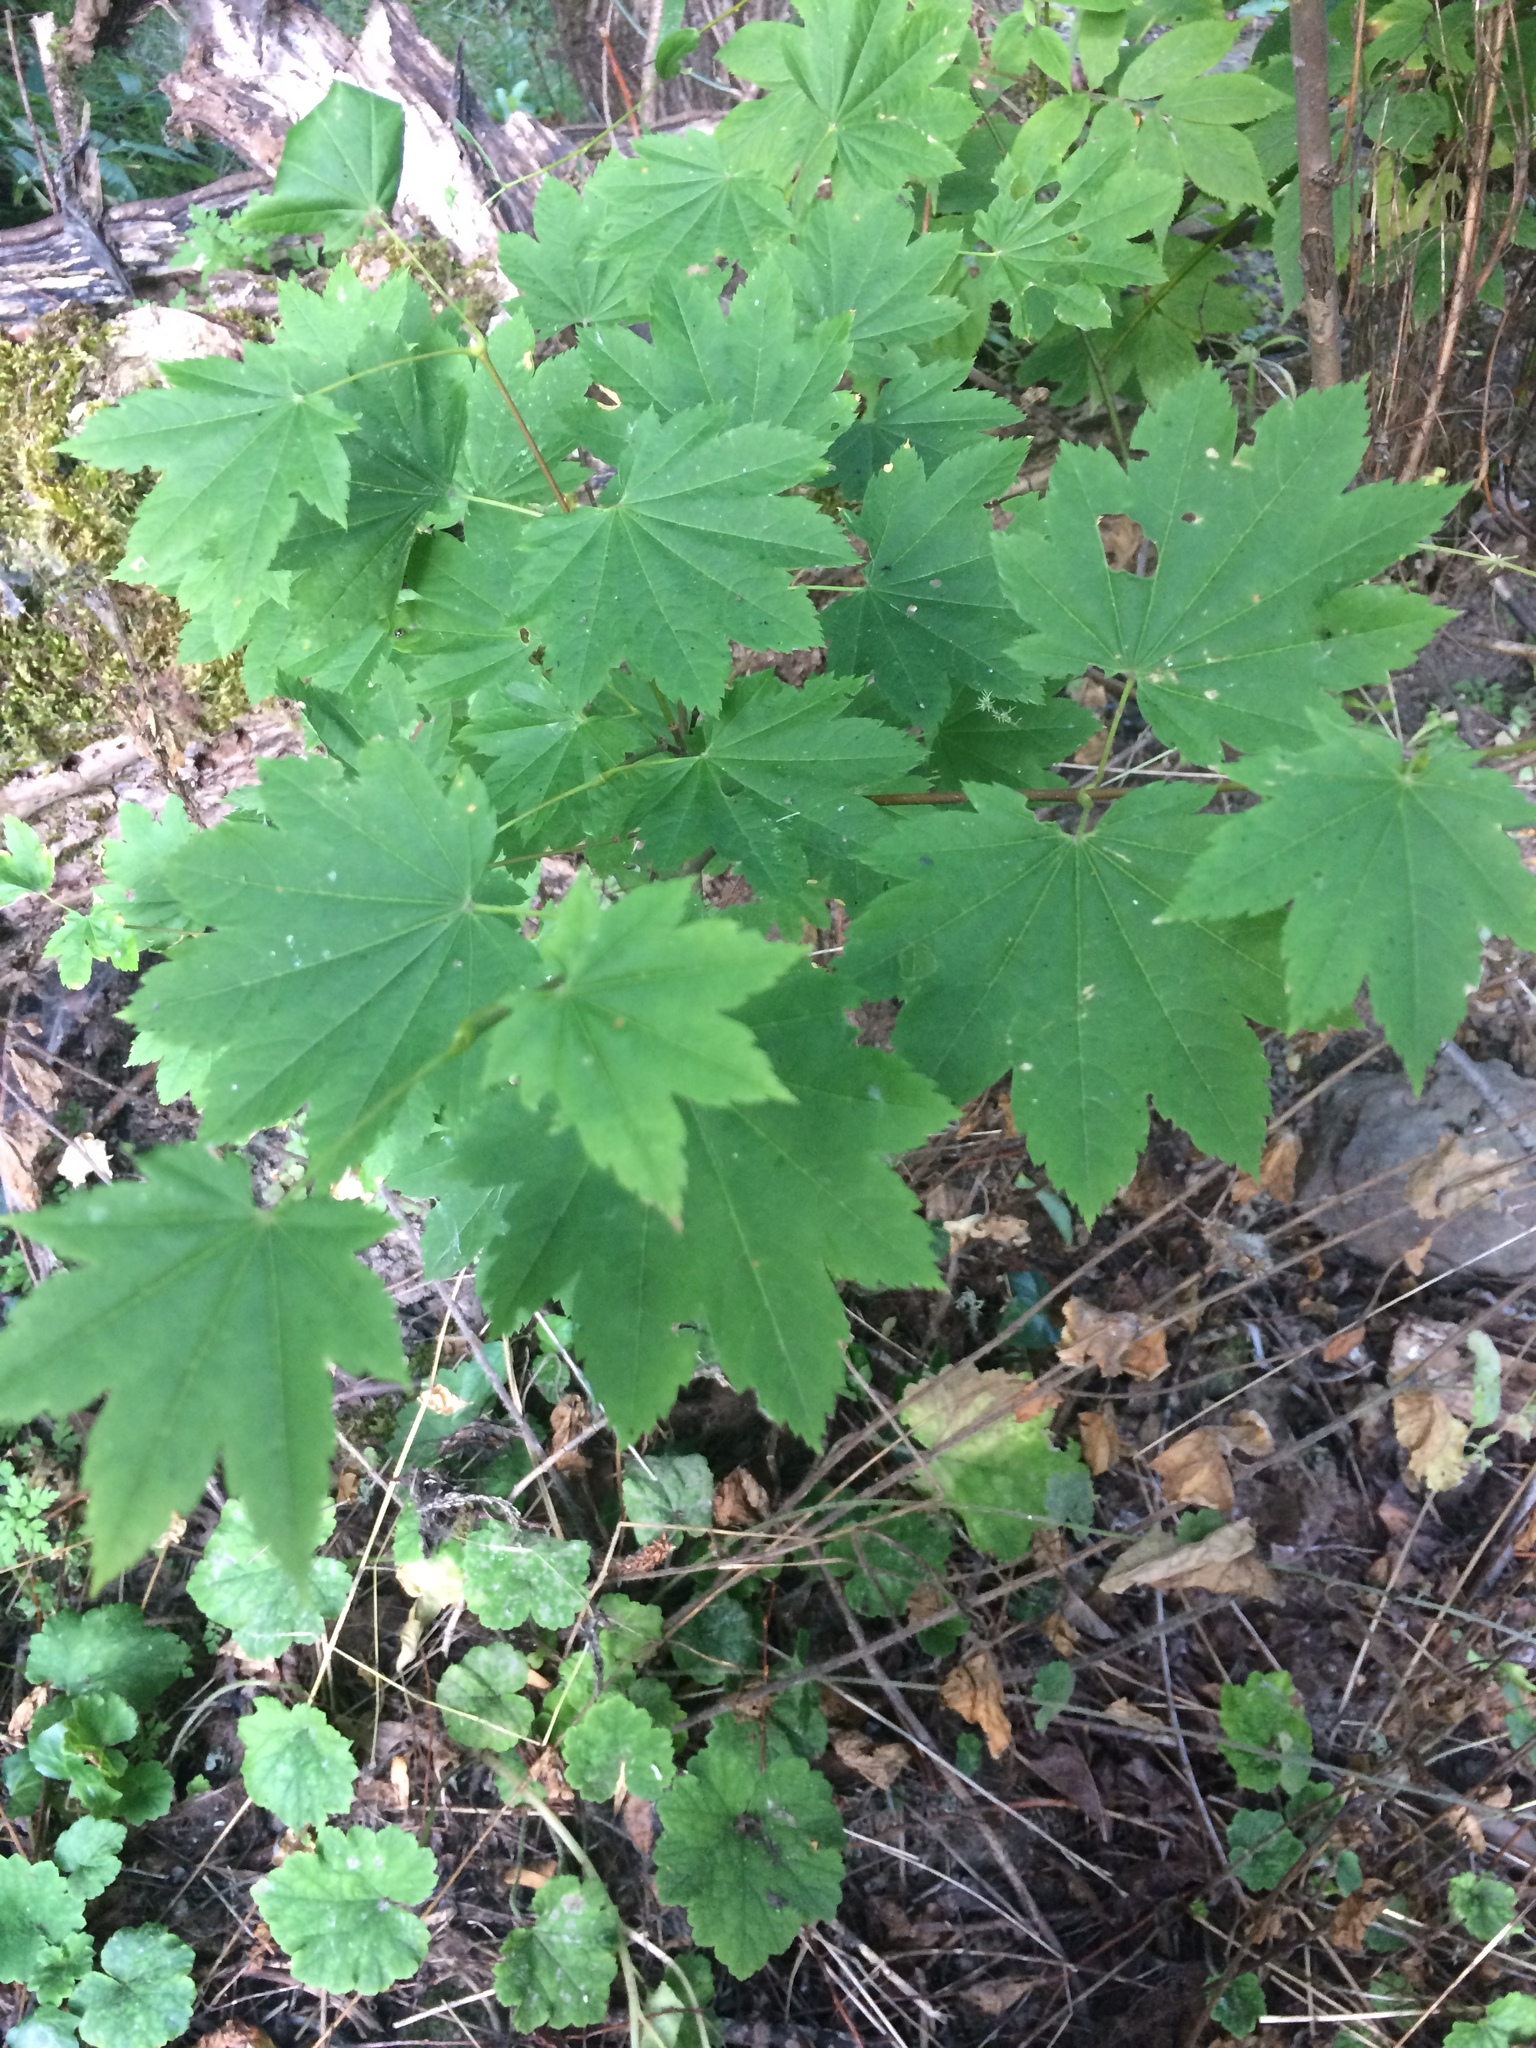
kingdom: Plantae
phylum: Tracheophyta
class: Magnoliopsida
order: Sapindales
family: Sapindaceae
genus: Acer
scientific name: Acer circinatum
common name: Vine maple
